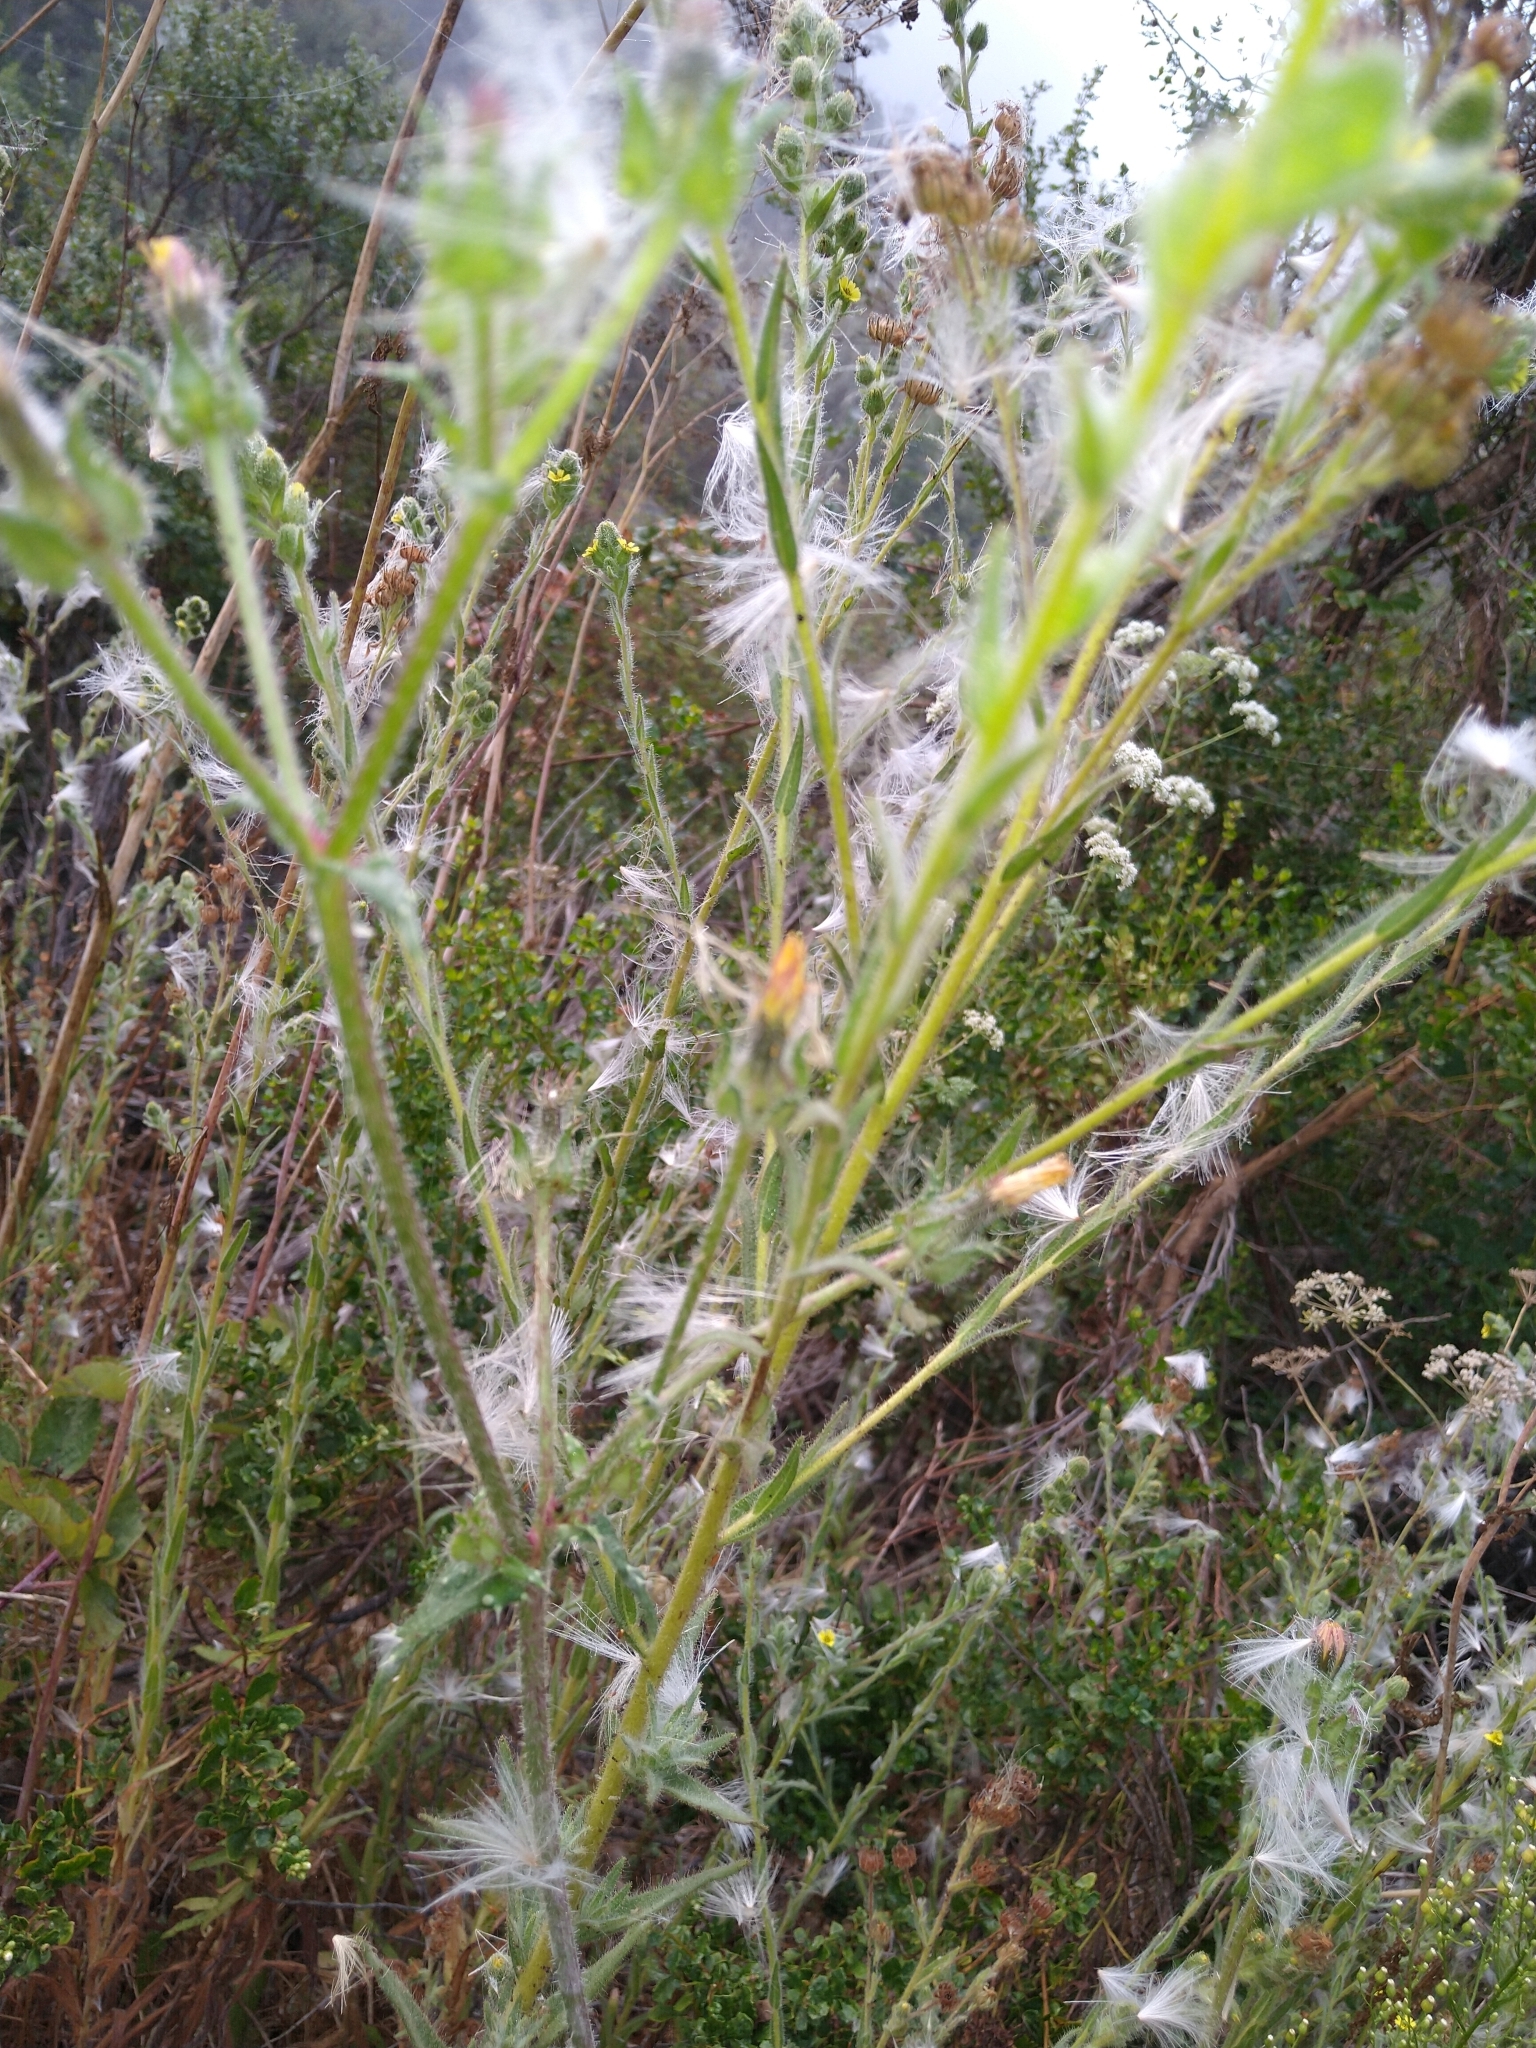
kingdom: Plantae
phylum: Tracheophyta
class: Magnoliopsida
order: Asterales
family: Asteraceae
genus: Helminthotheca
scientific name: Helminthotheca echioides
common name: Ox-tongue
